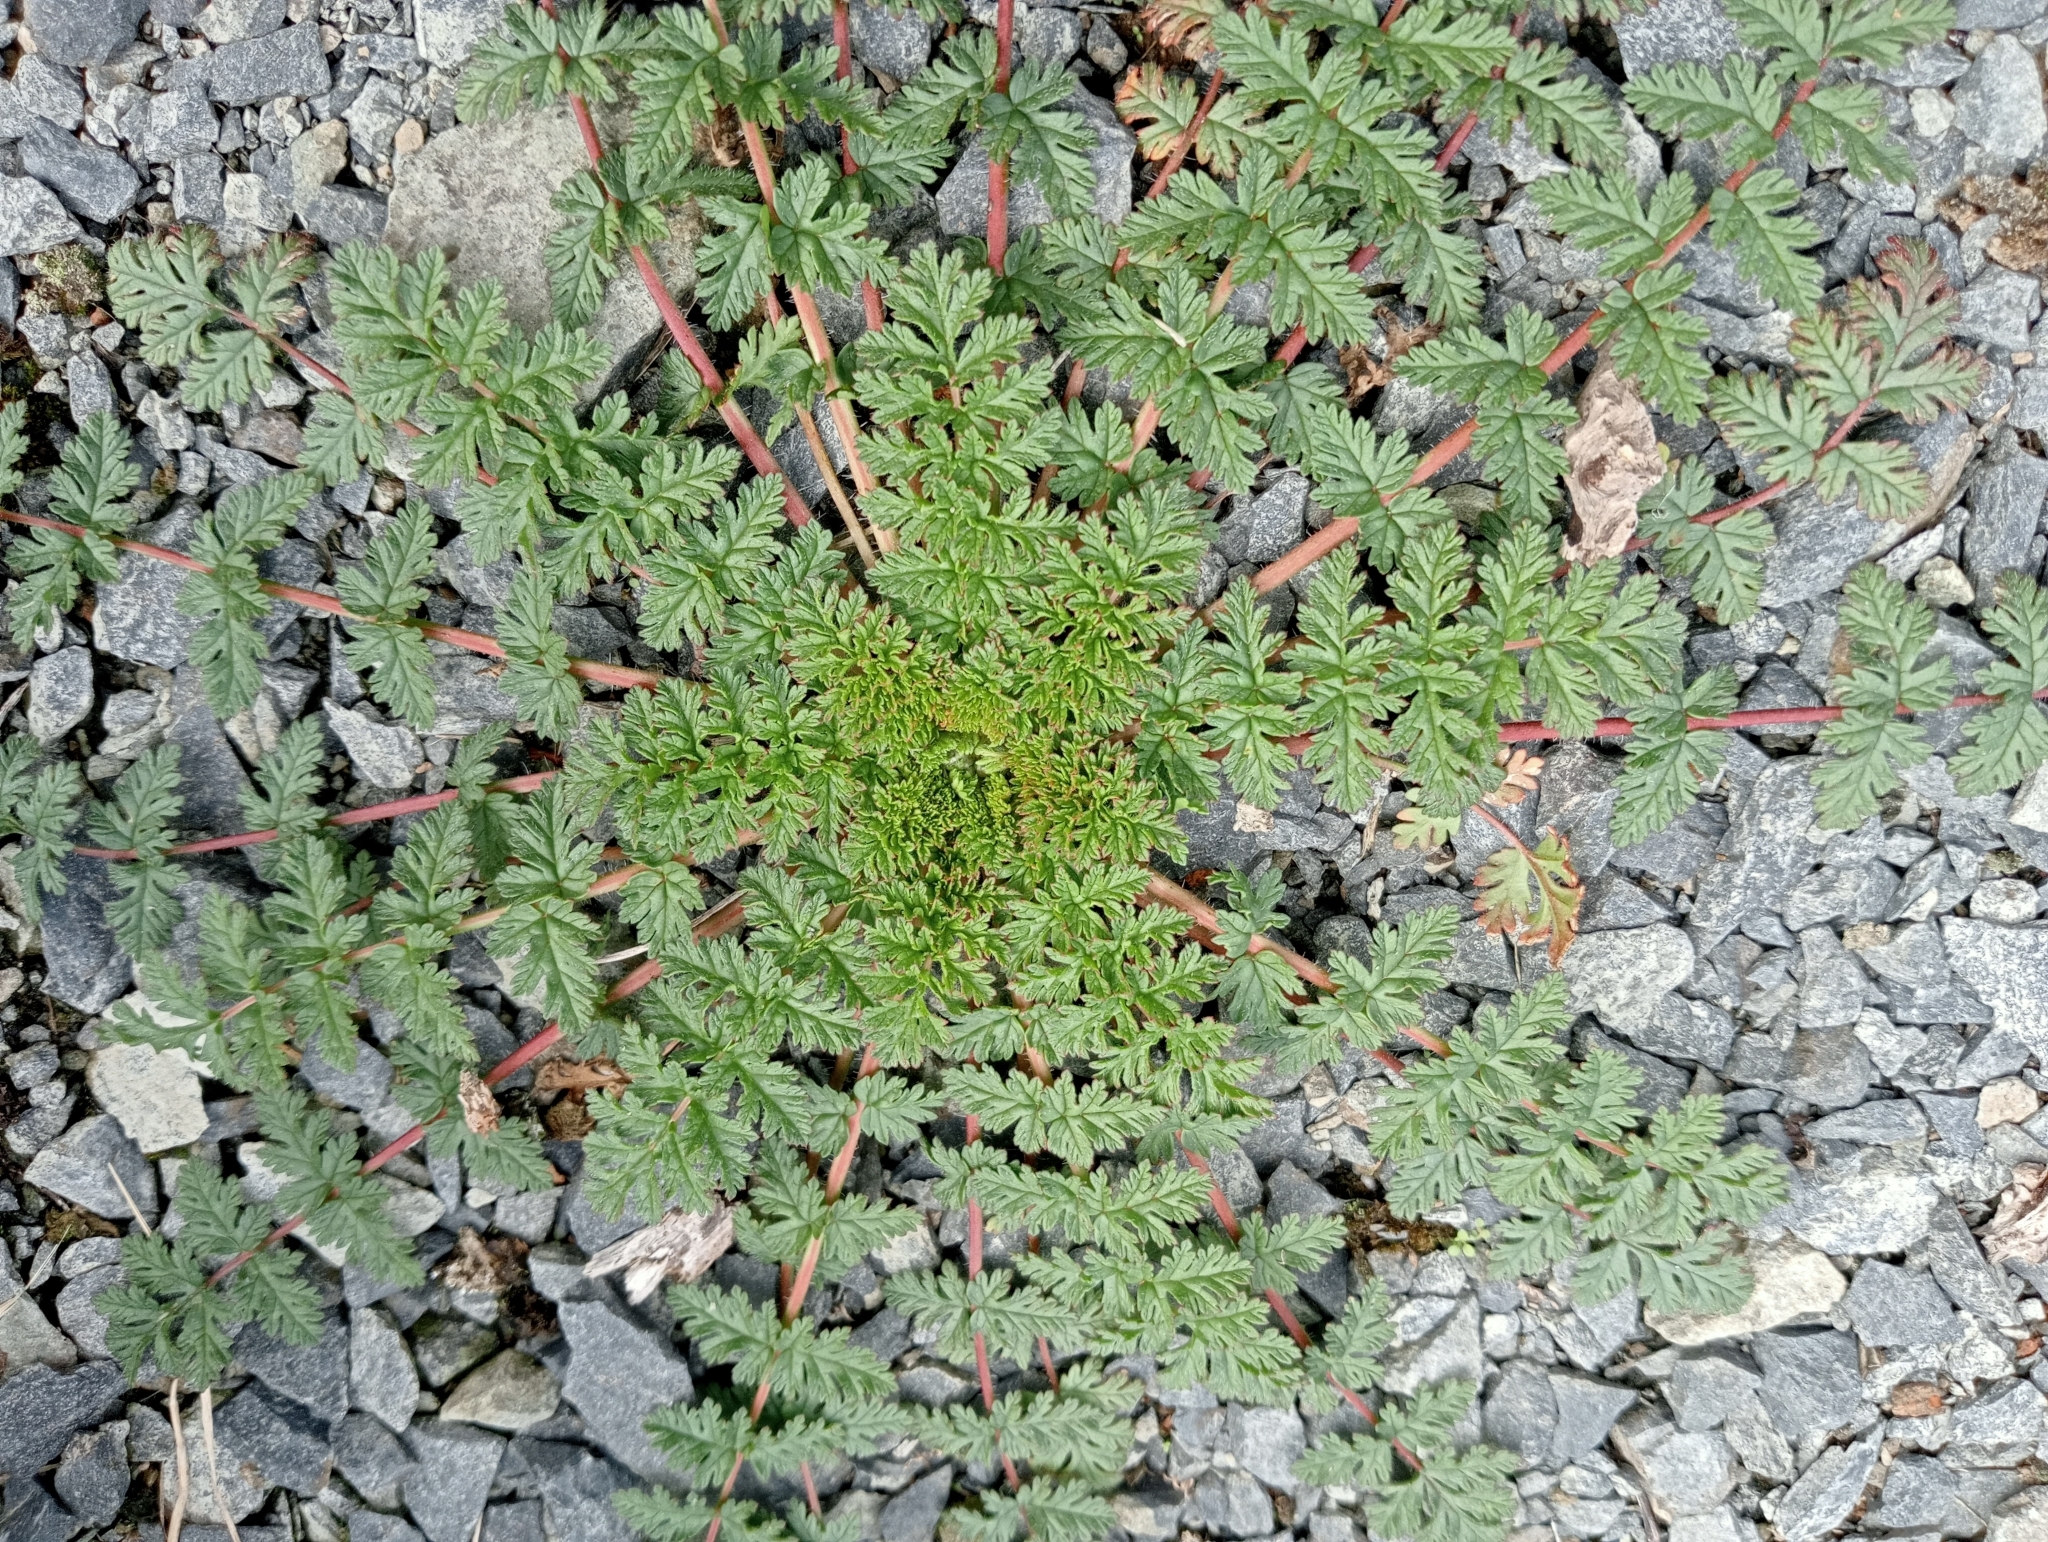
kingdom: Plantae
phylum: Tracheophyta
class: Magnoliopsida
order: Geraniales
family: Geraniaceae
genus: Erodium
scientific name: Erodium cicutarium
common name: Common stork's-bill
